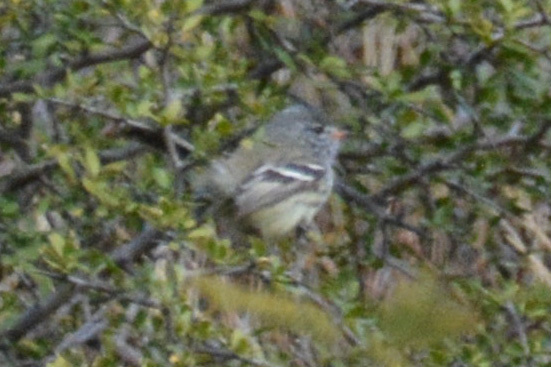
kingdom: Animalia
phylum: Chordata
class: Aves
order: Passeriformes
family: Tyrannidae
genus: Anairetes
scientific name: Anairetes flavirostris
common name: Yellow-billed tit-tyrant
